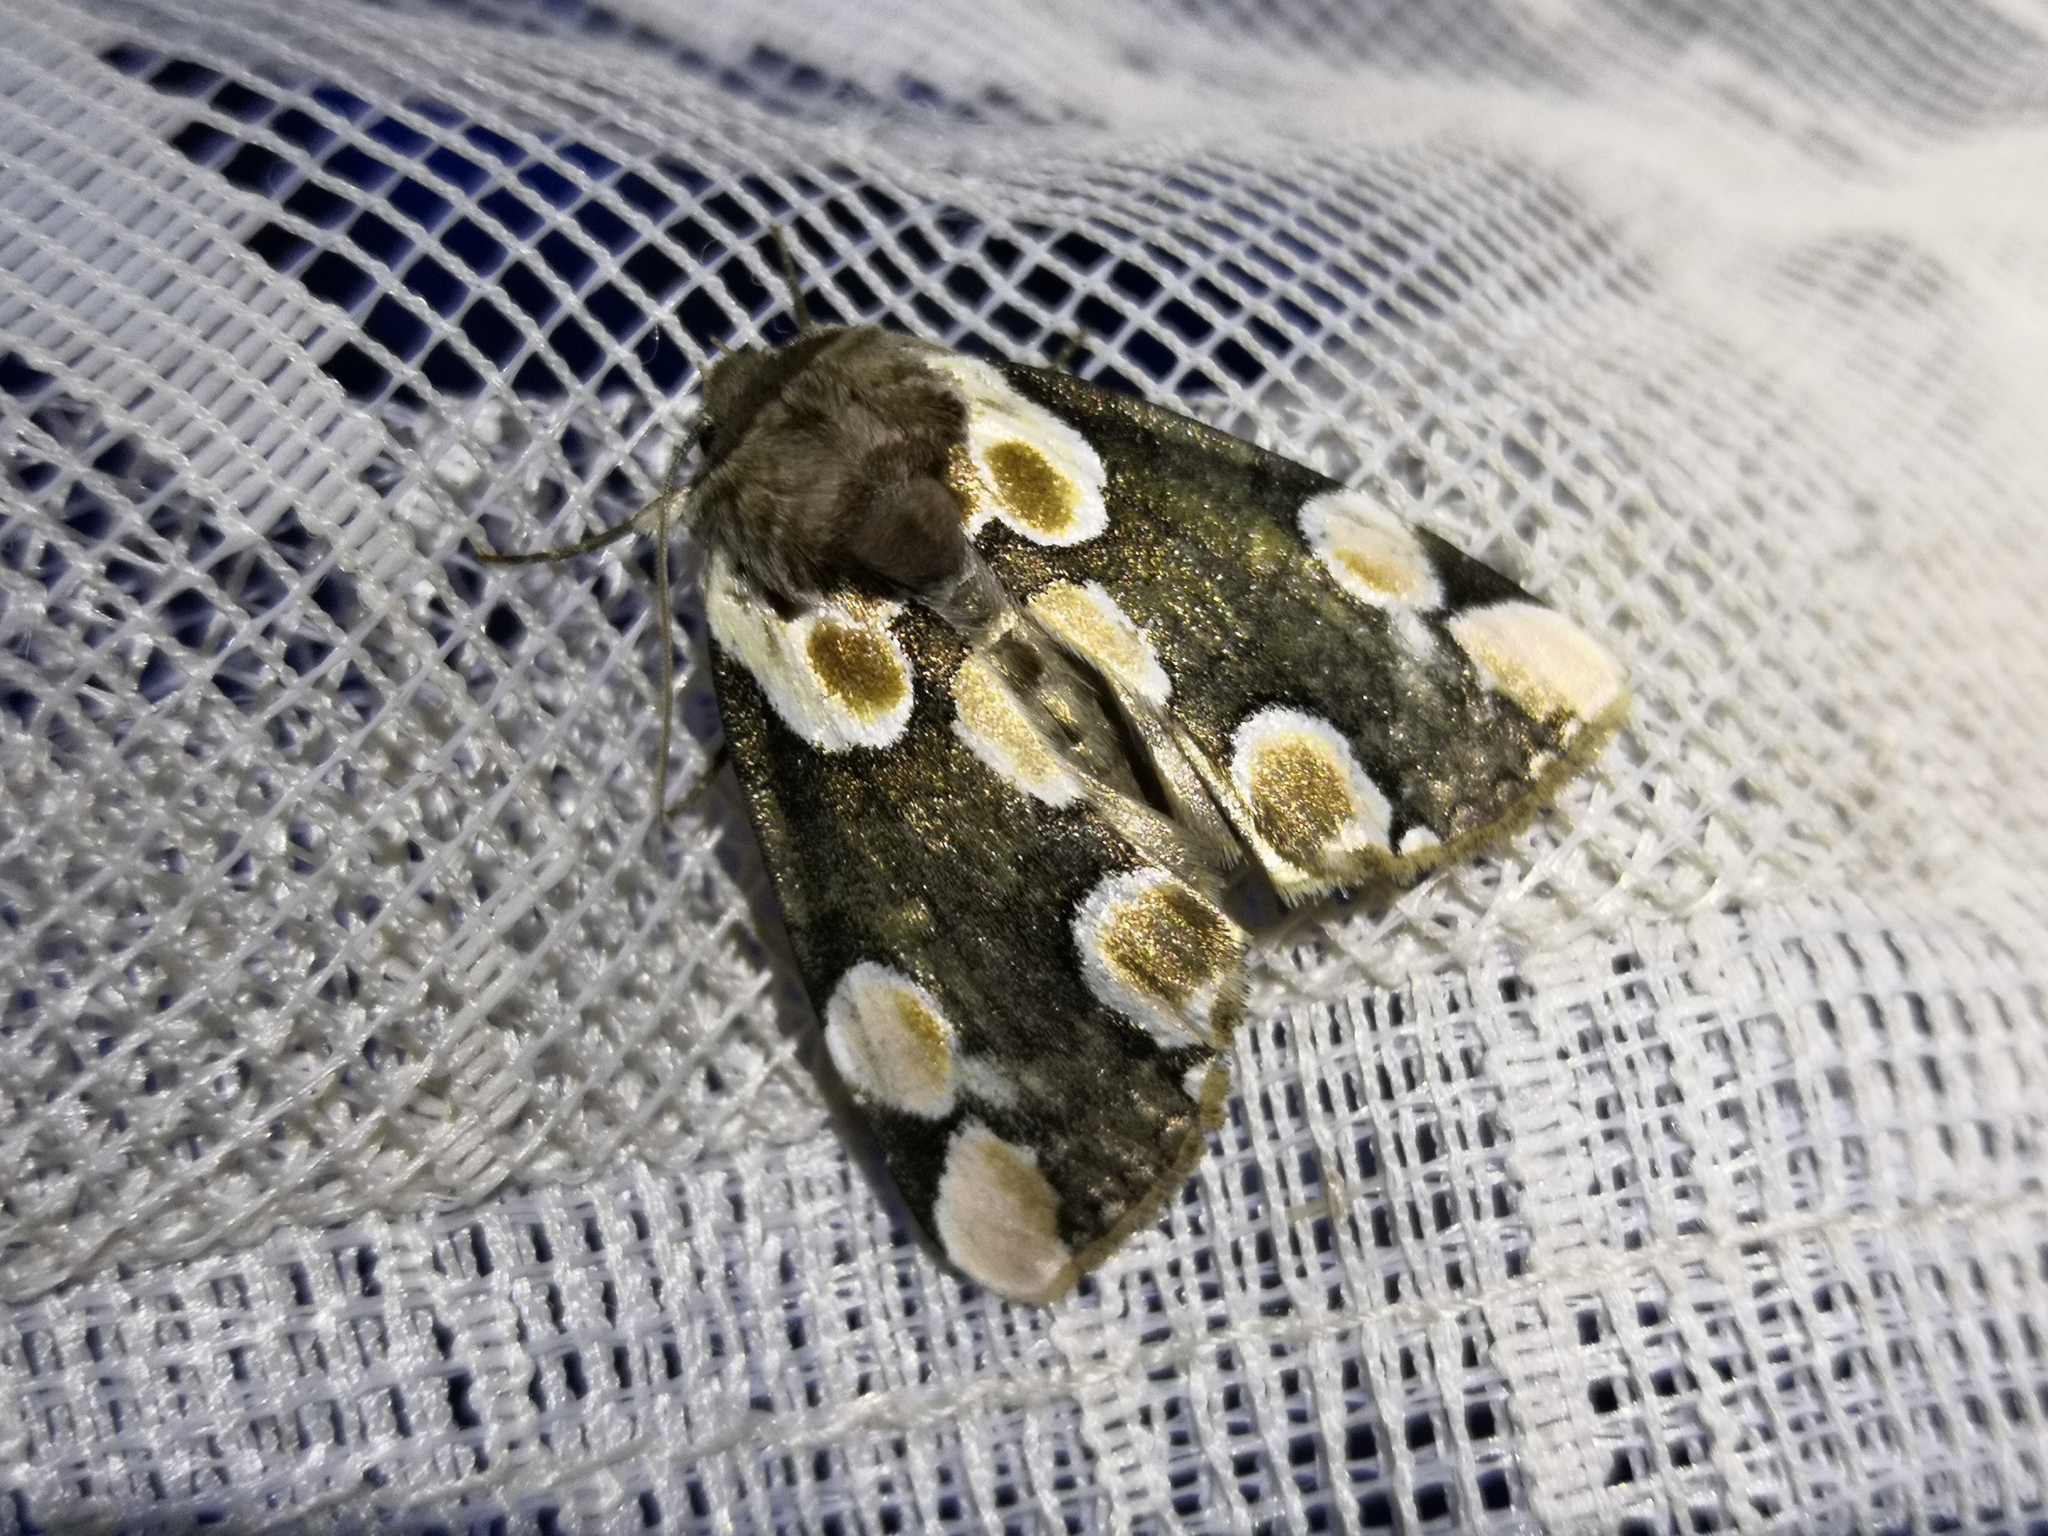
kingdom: Animalia
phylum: Arthropoda
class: Insecta
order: Lepidoptera
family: Drepanidae
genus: Thyatira
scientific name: Thyatira batis
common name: Peach blossom
